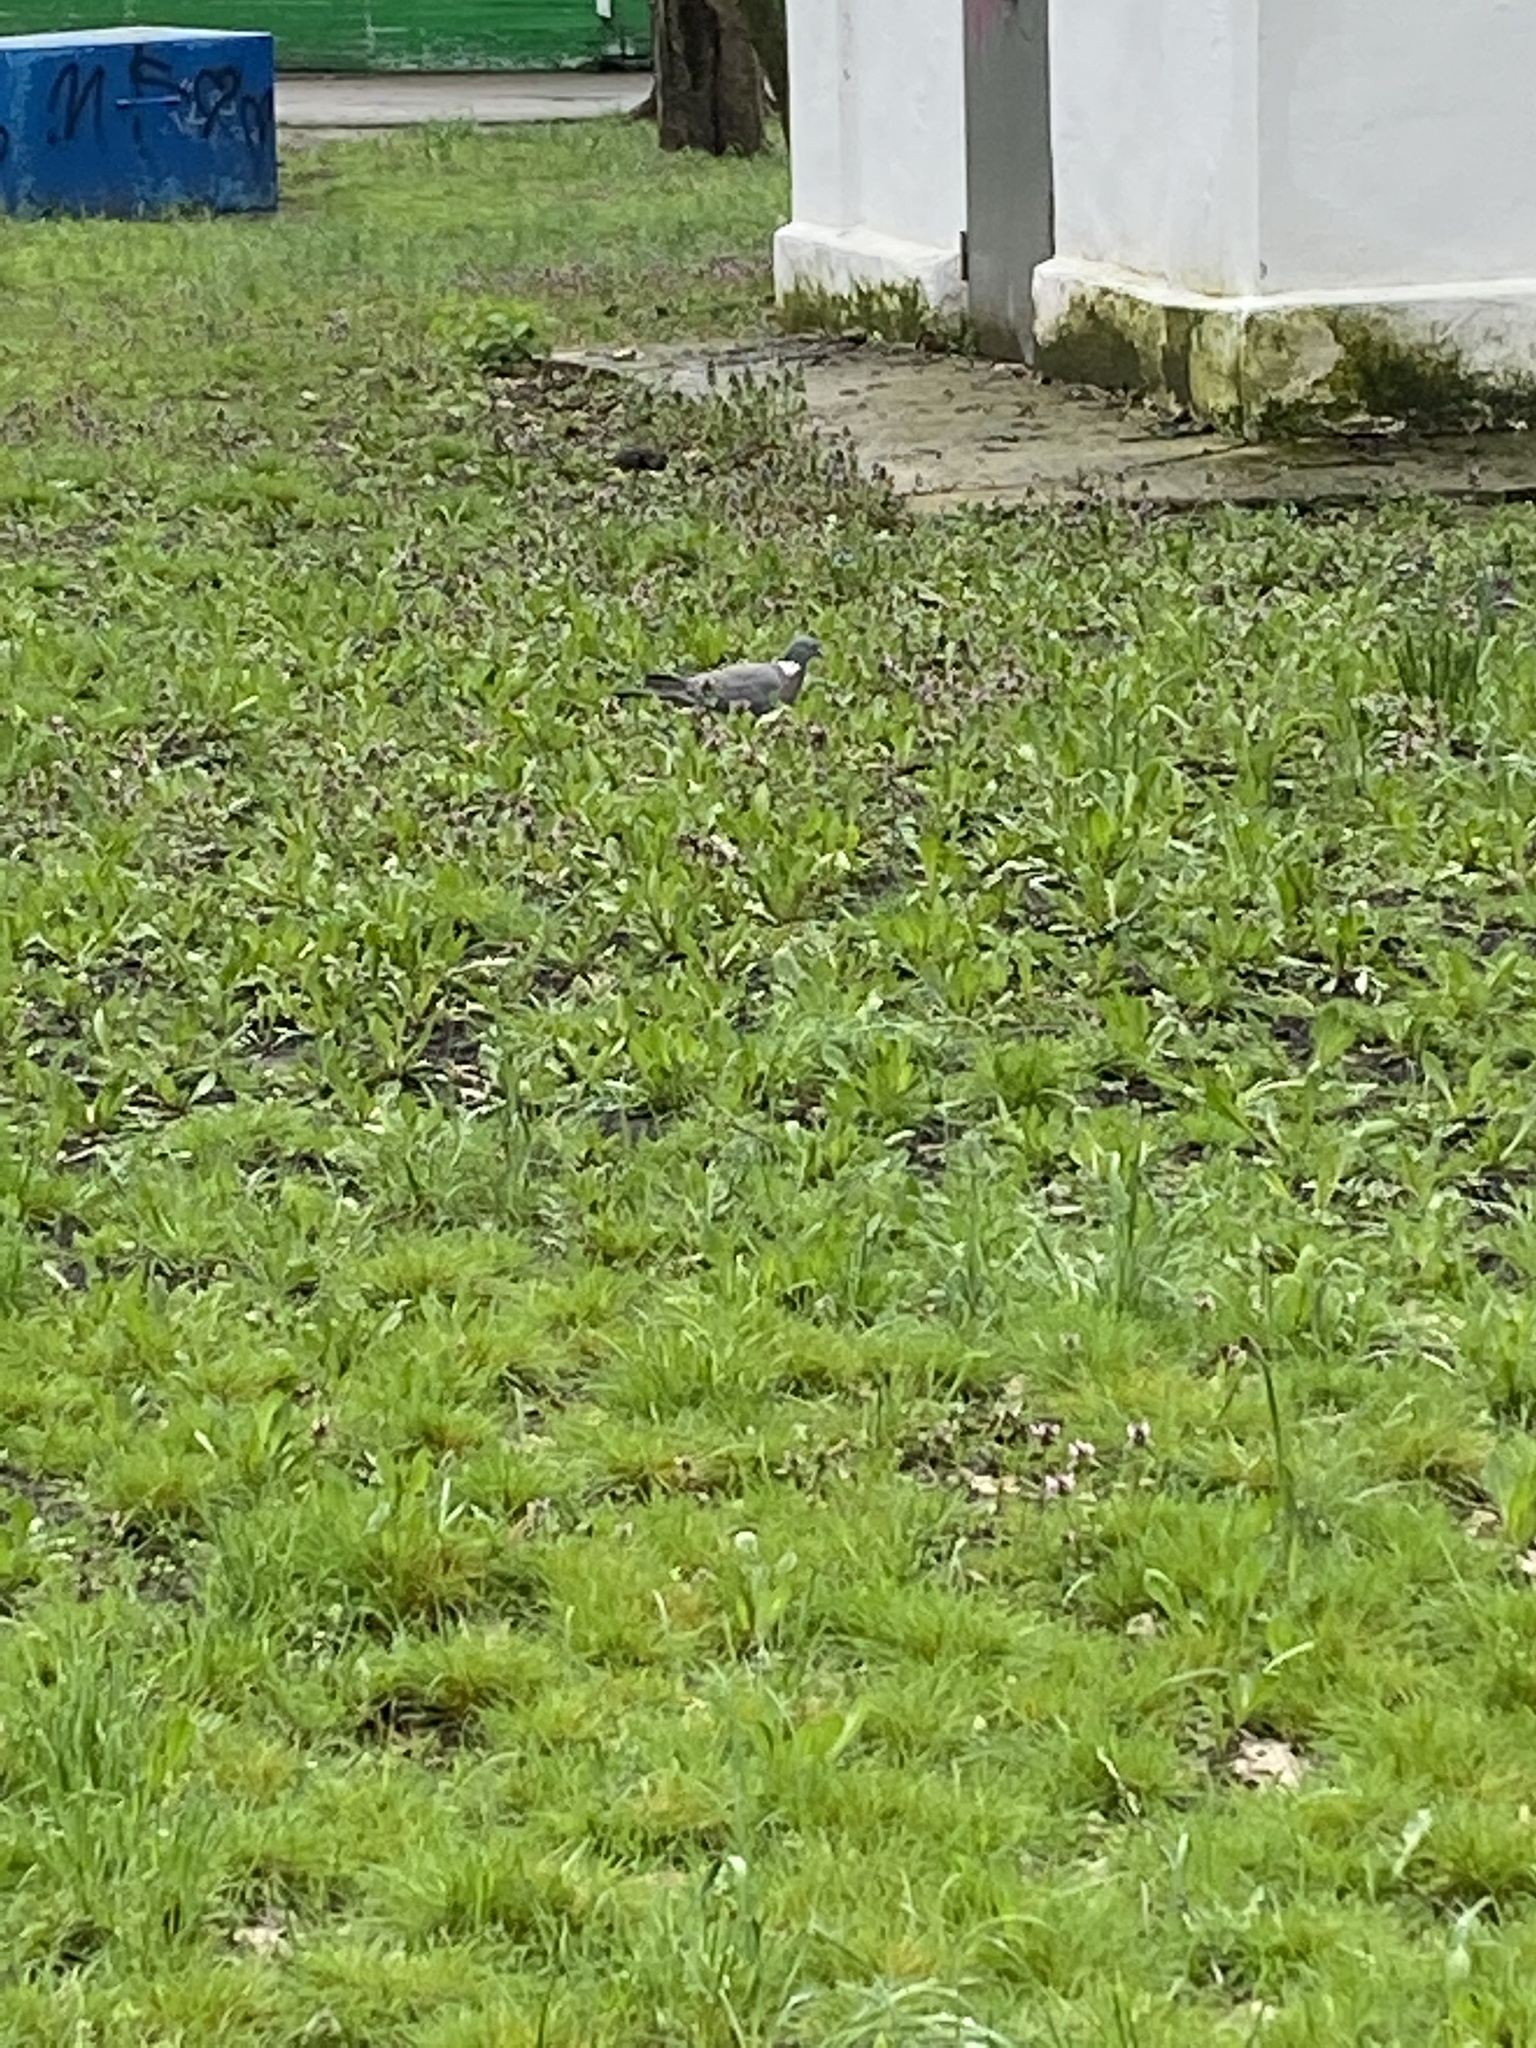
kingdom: Animalia
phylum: Chordata
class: Aves
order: Columbiformes
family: Columbidae
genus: Columba
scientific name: Columba palumbus
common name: Common wood pigeon
